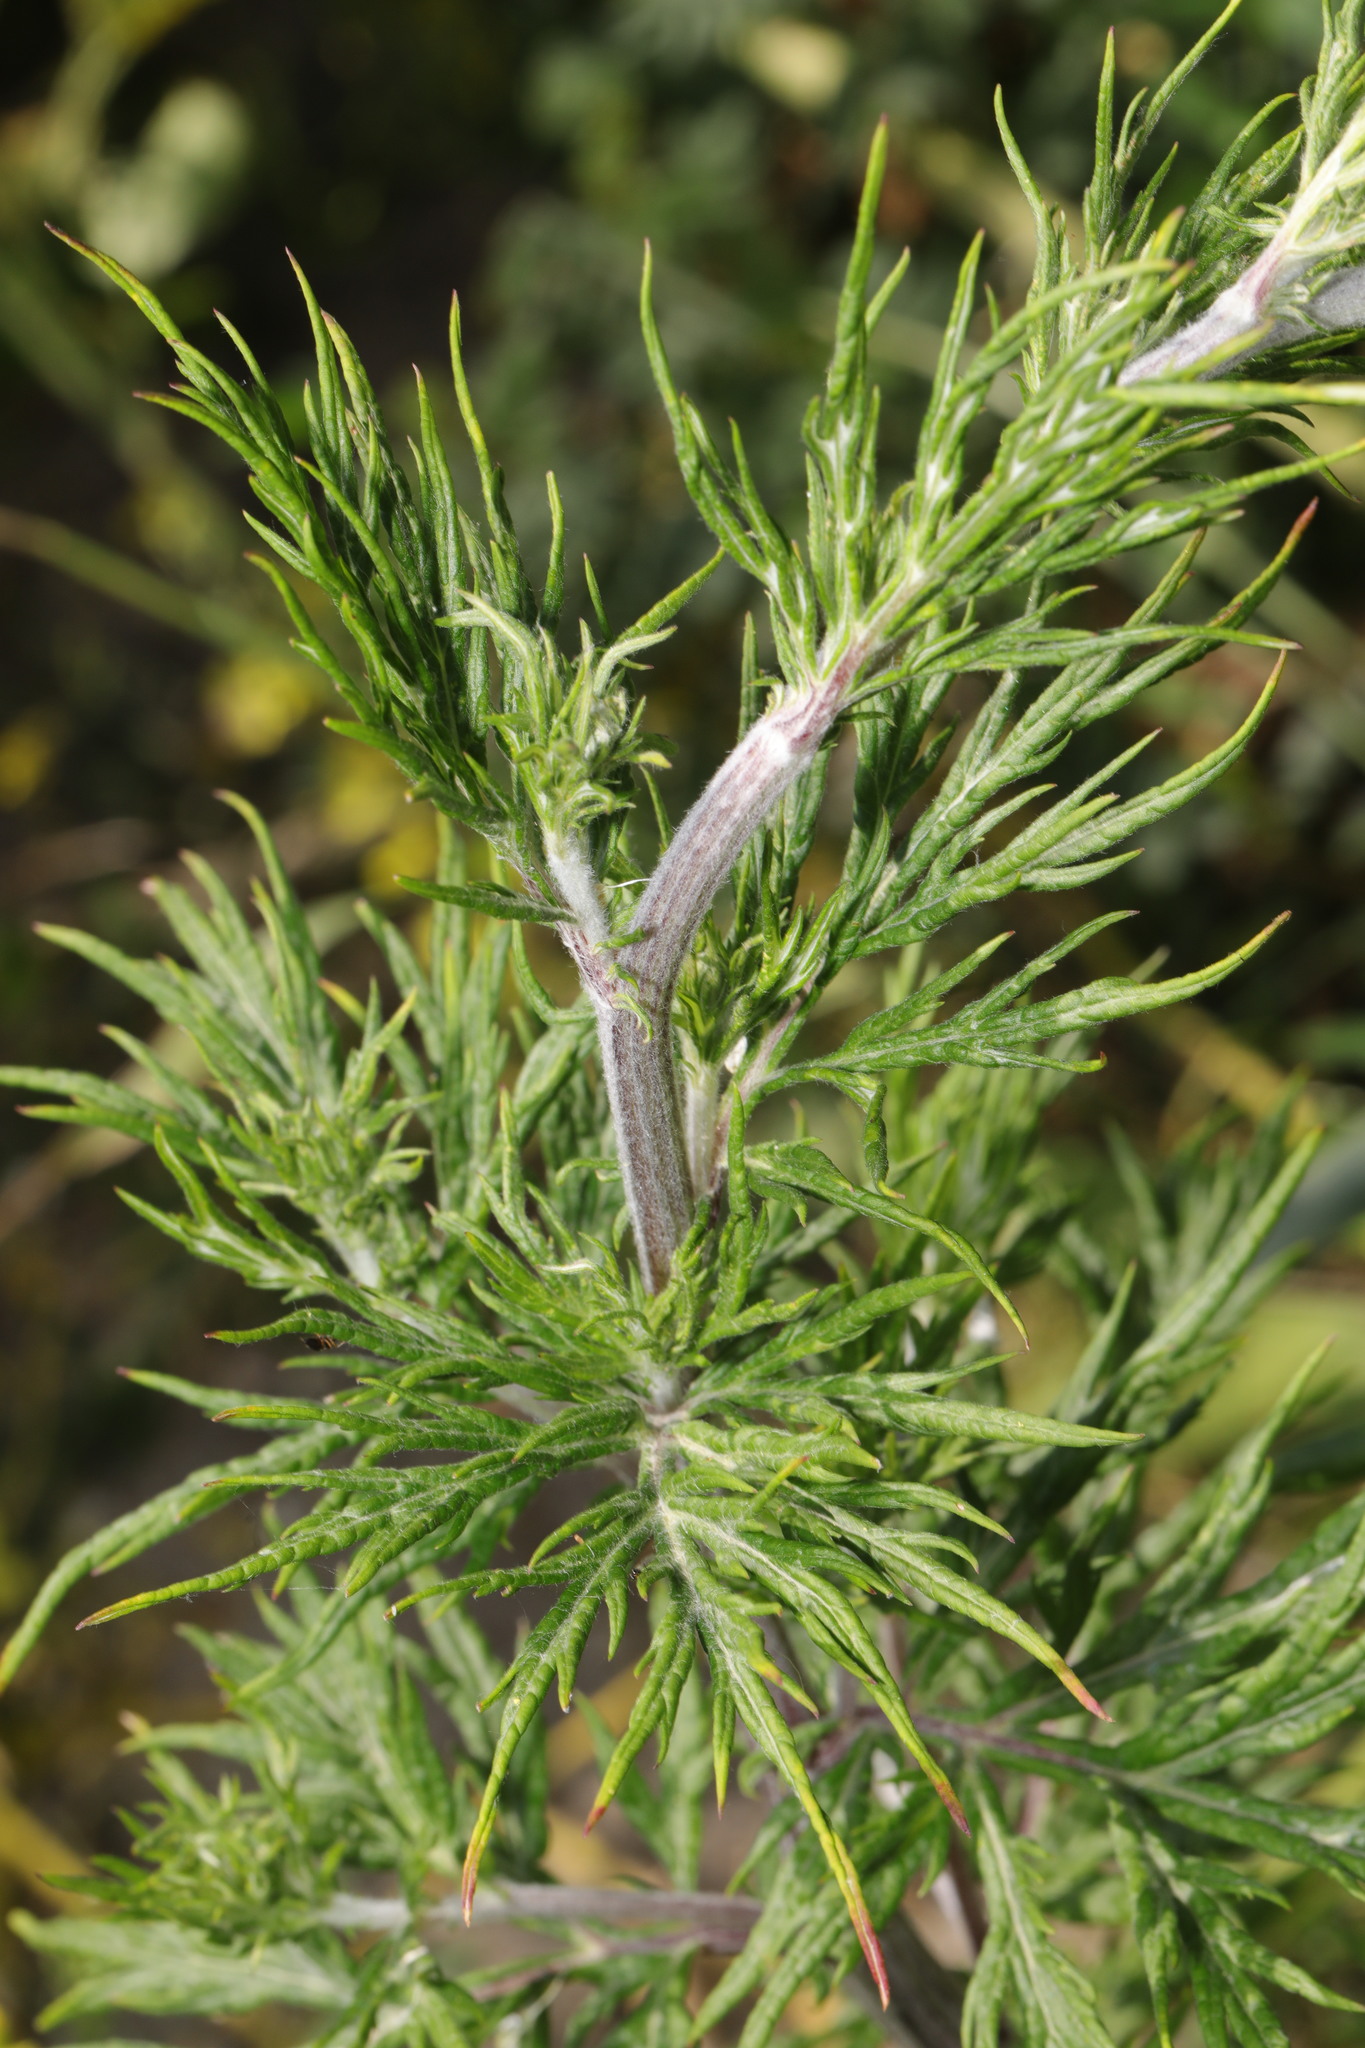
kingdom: Plantae
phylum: Tracheophyta
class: Magnoliopsida
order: Asterales
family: Asteraceae
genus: Artemisia
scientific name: Artemisia vulgaris
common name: Mugwort
